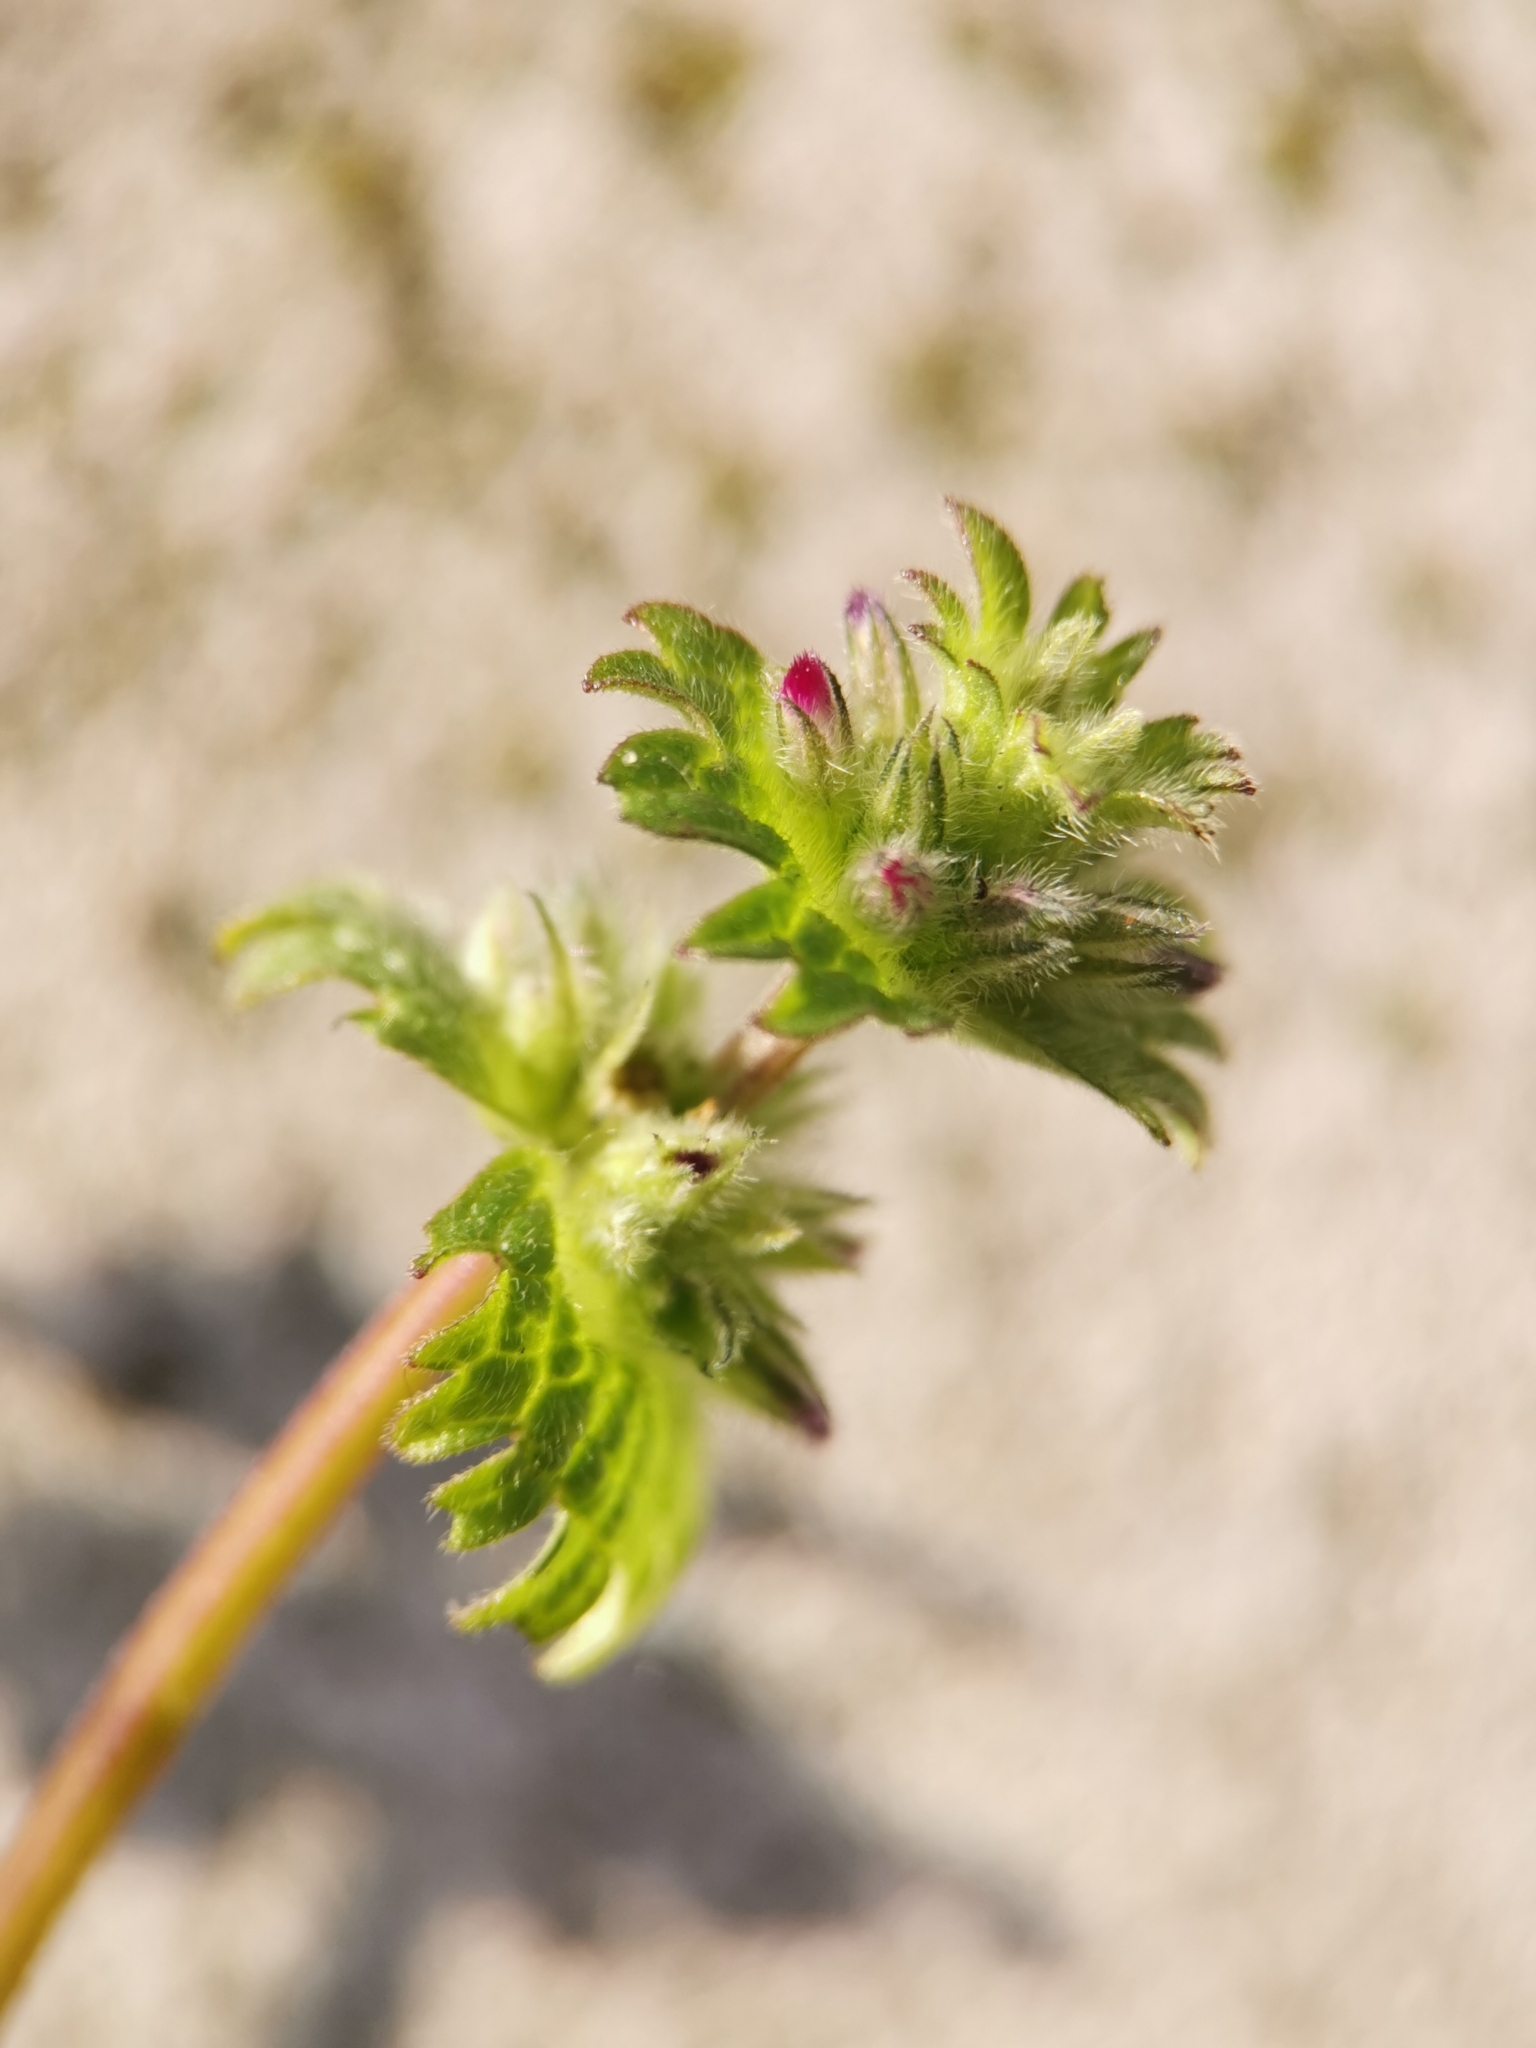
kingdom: Plantae
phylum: Tracheophyta
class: Magnoliopsida
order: Lamiales
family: Lamiaceae
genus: Lamium
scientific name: Lamium amplexicaule
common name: Henbit dead-nettle
